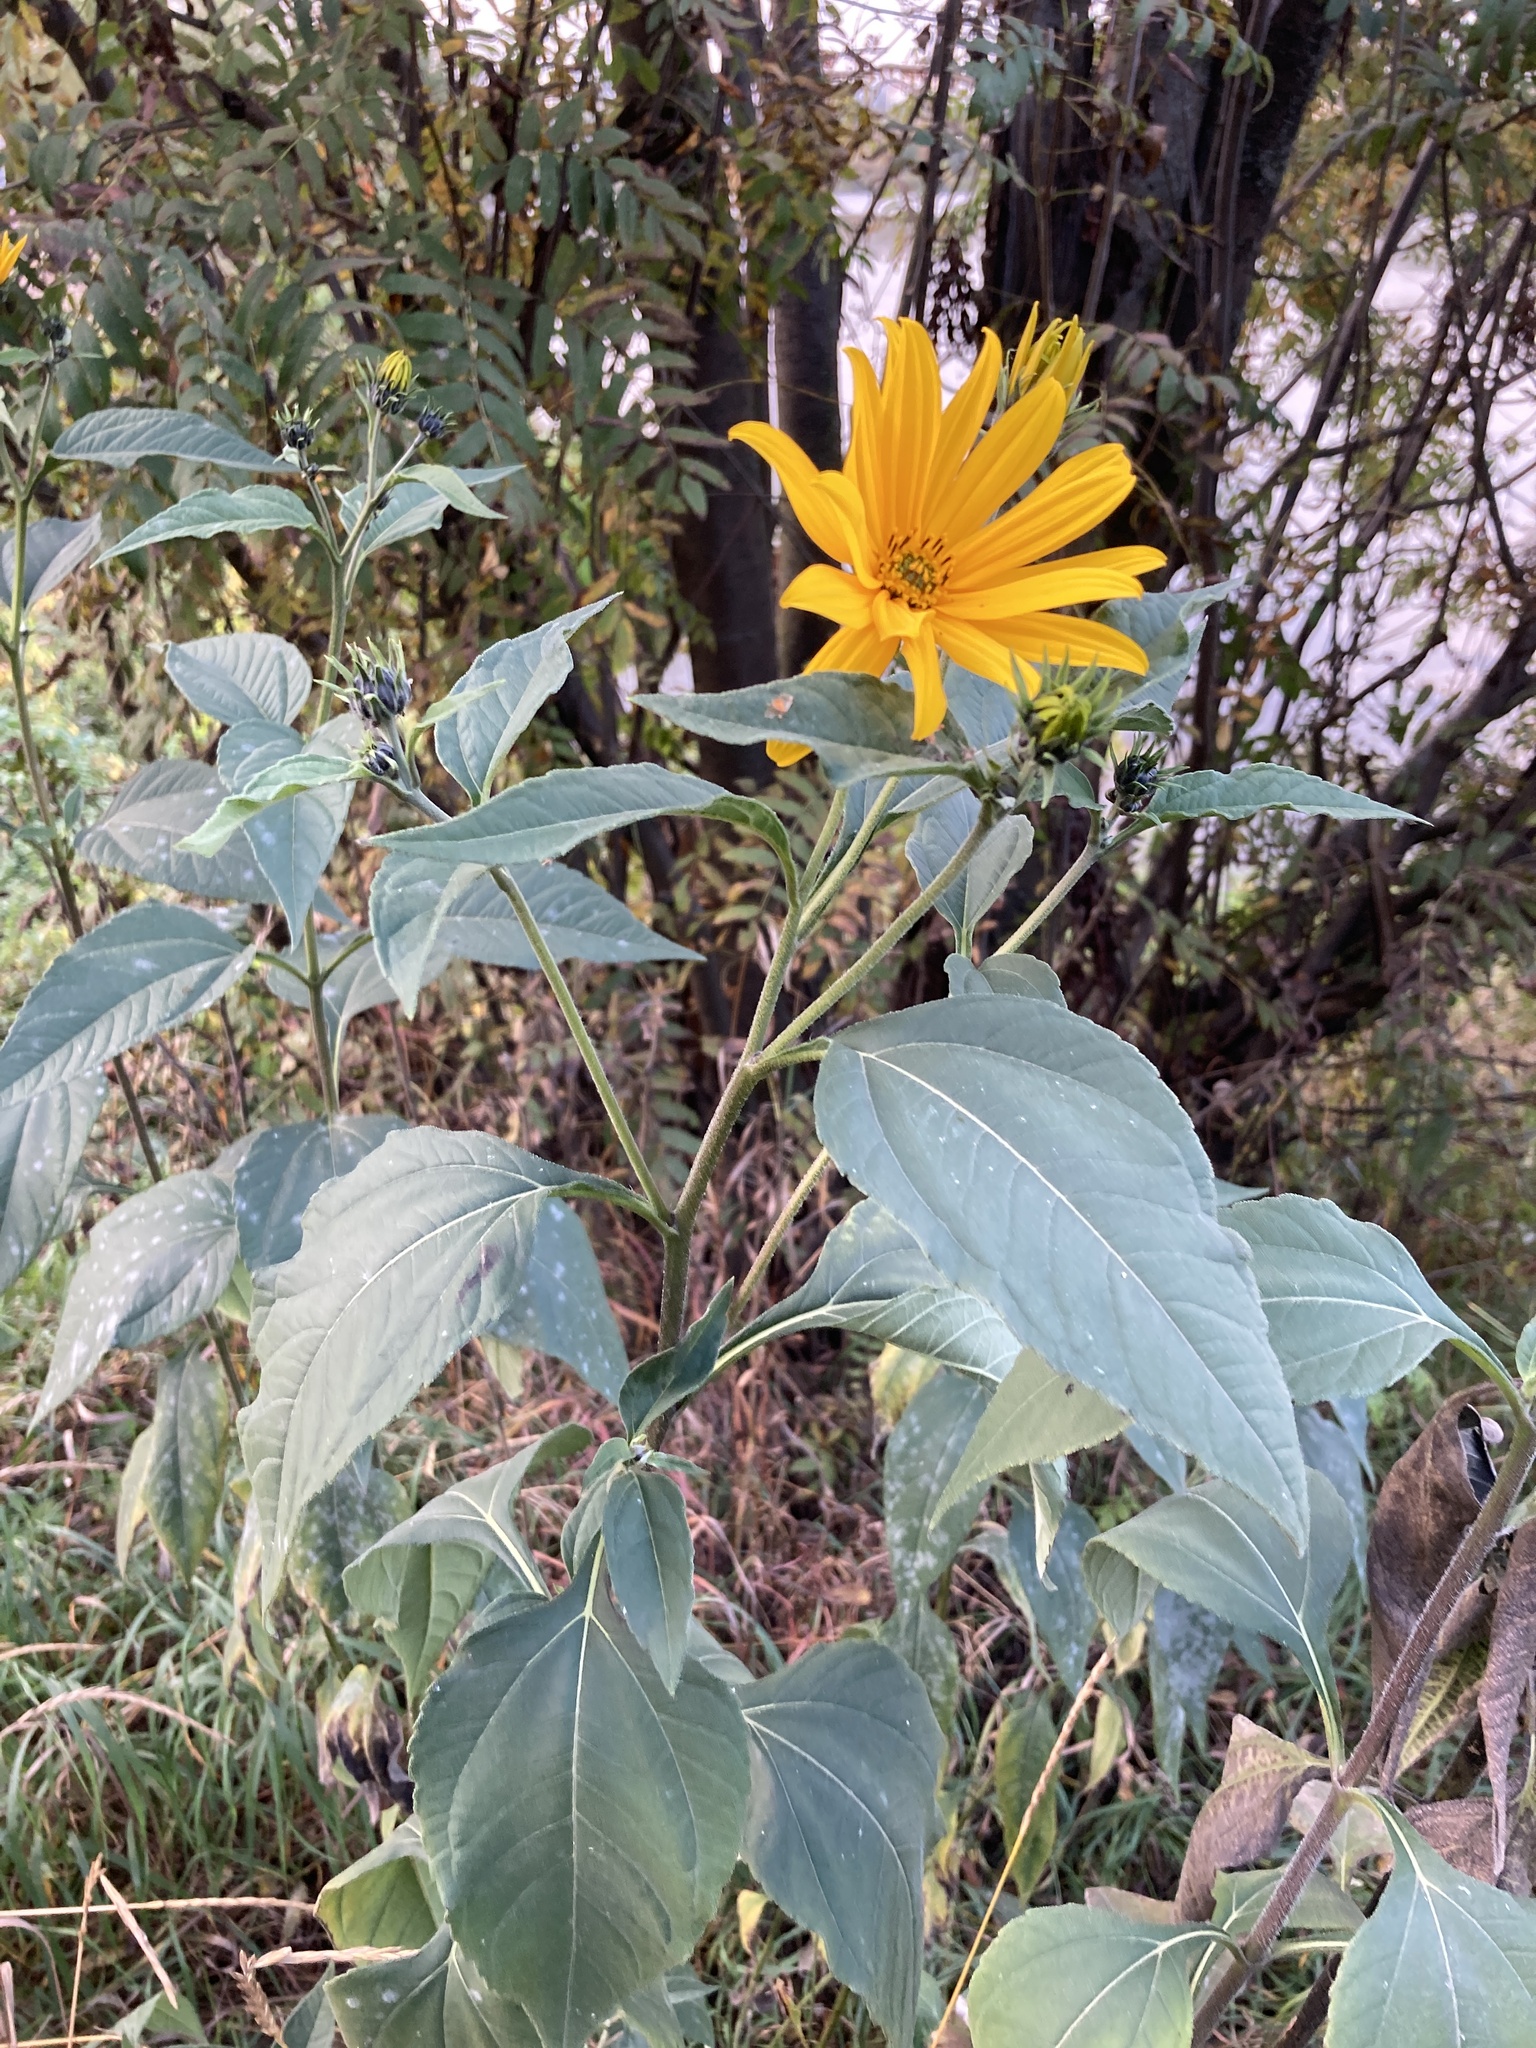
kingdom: Plantae
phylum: Tracheophyta
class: Magnoliopsida
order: Asterales
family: Asteraceae
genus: Helianthus
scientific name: Helianthus tuberosus
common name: Jerusalem artichoke
